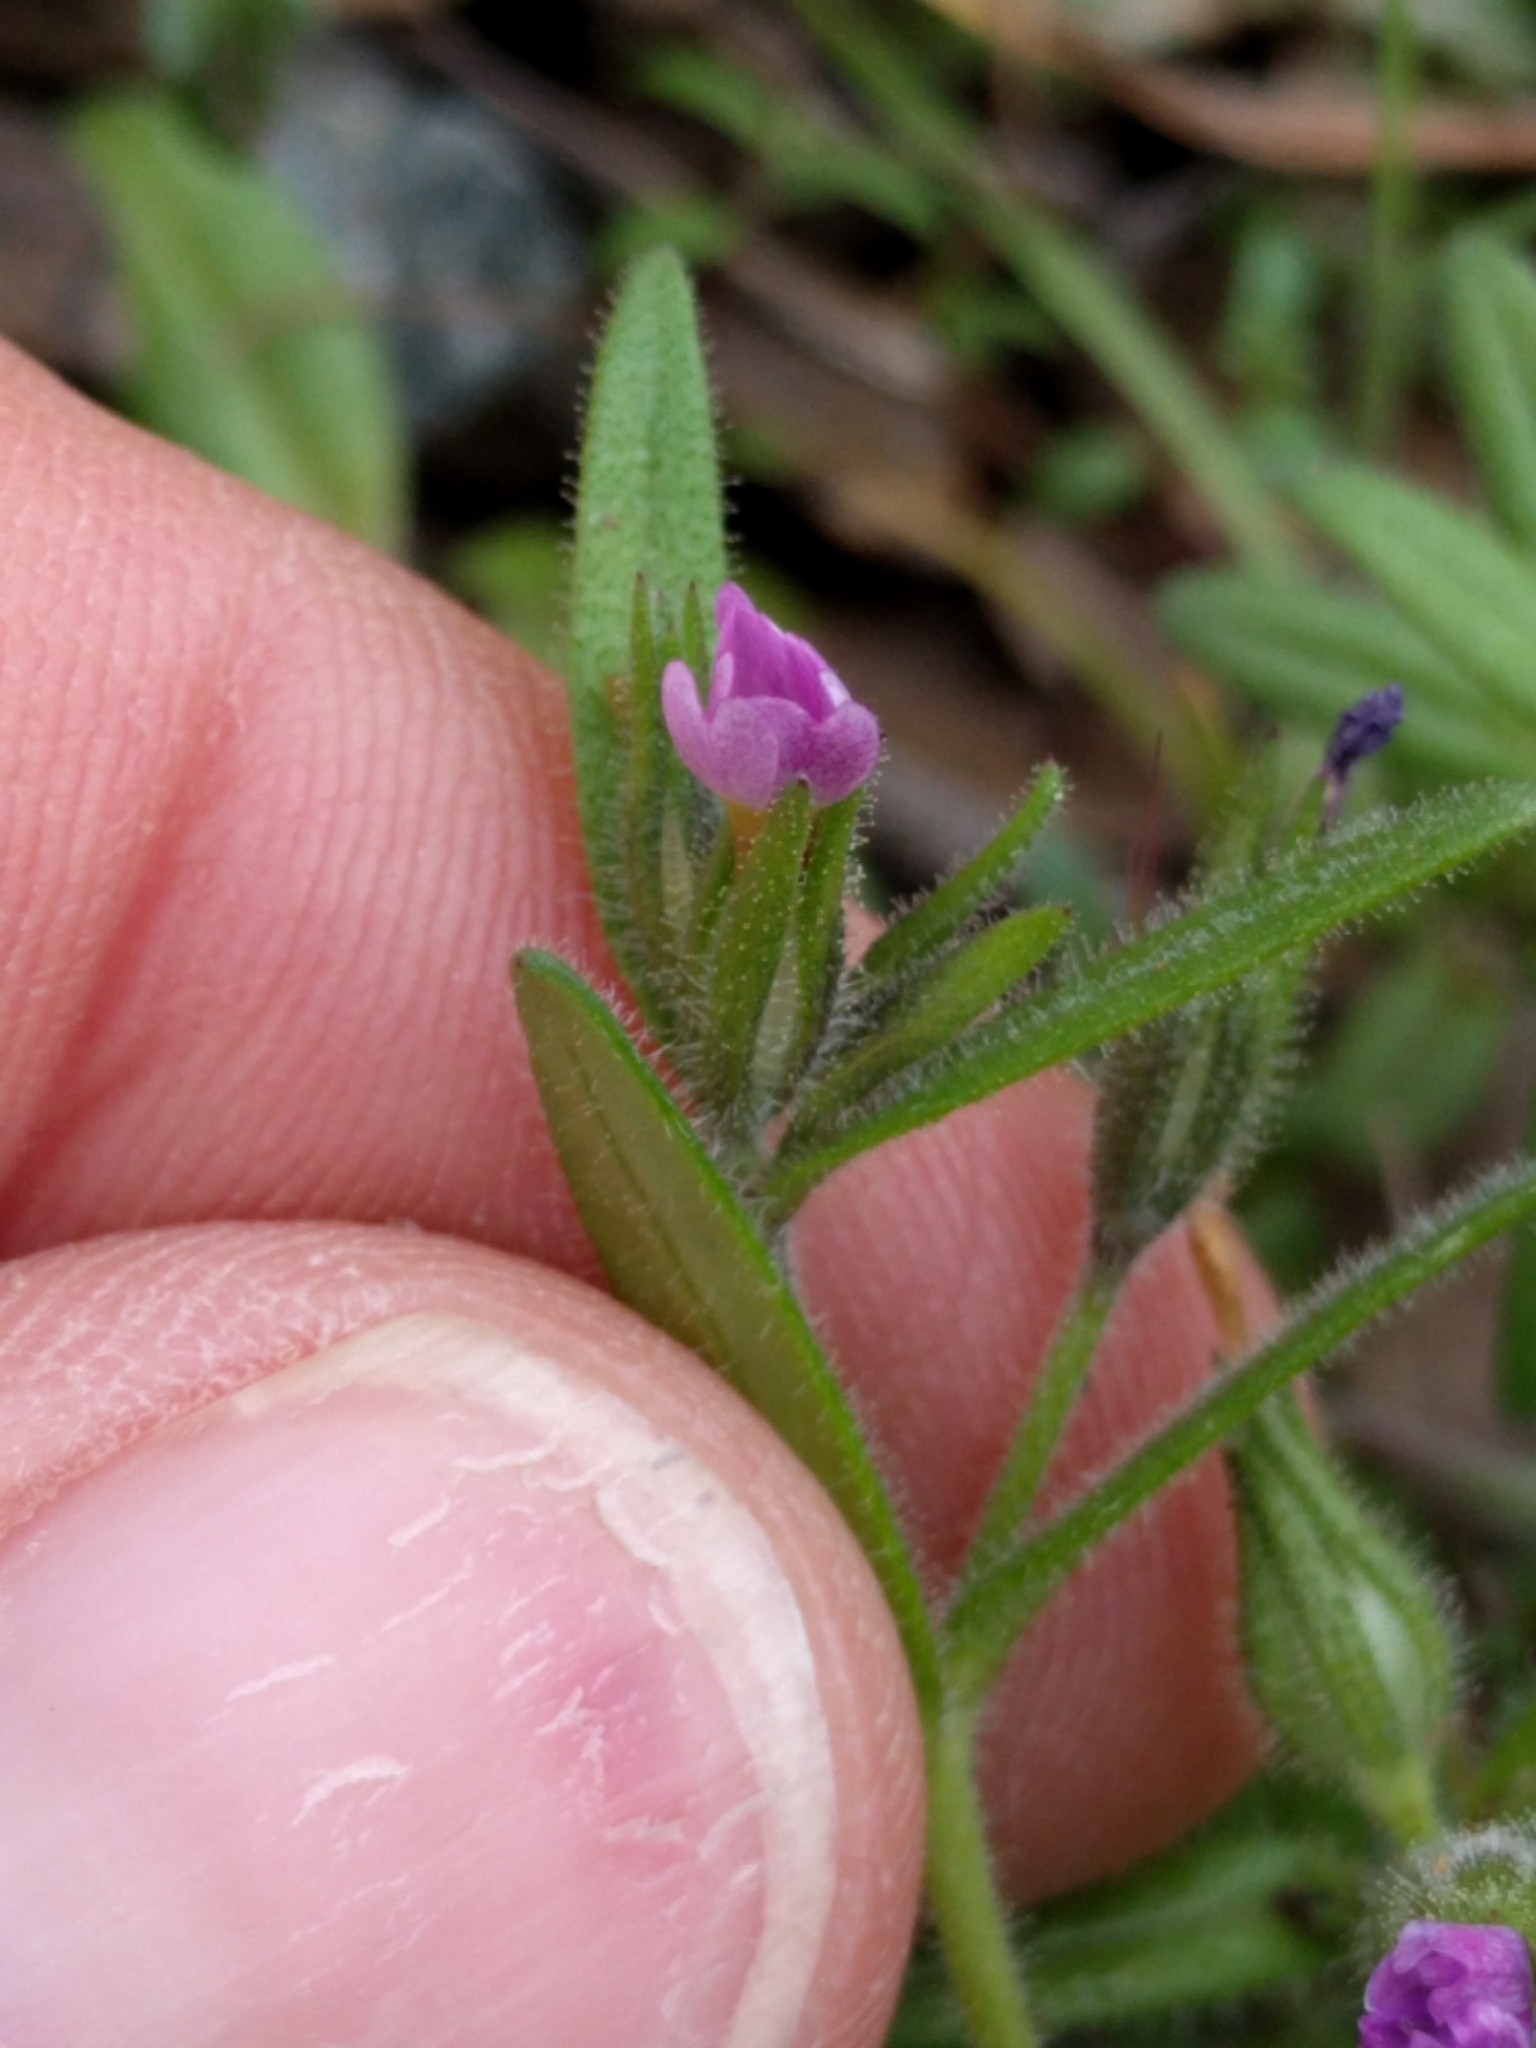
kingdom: Plantae
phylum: Tracheophyta
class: Magnoliopsida
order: Ericales
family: Polemoniaceae
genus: Phlox
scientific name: Phlox gracilis
